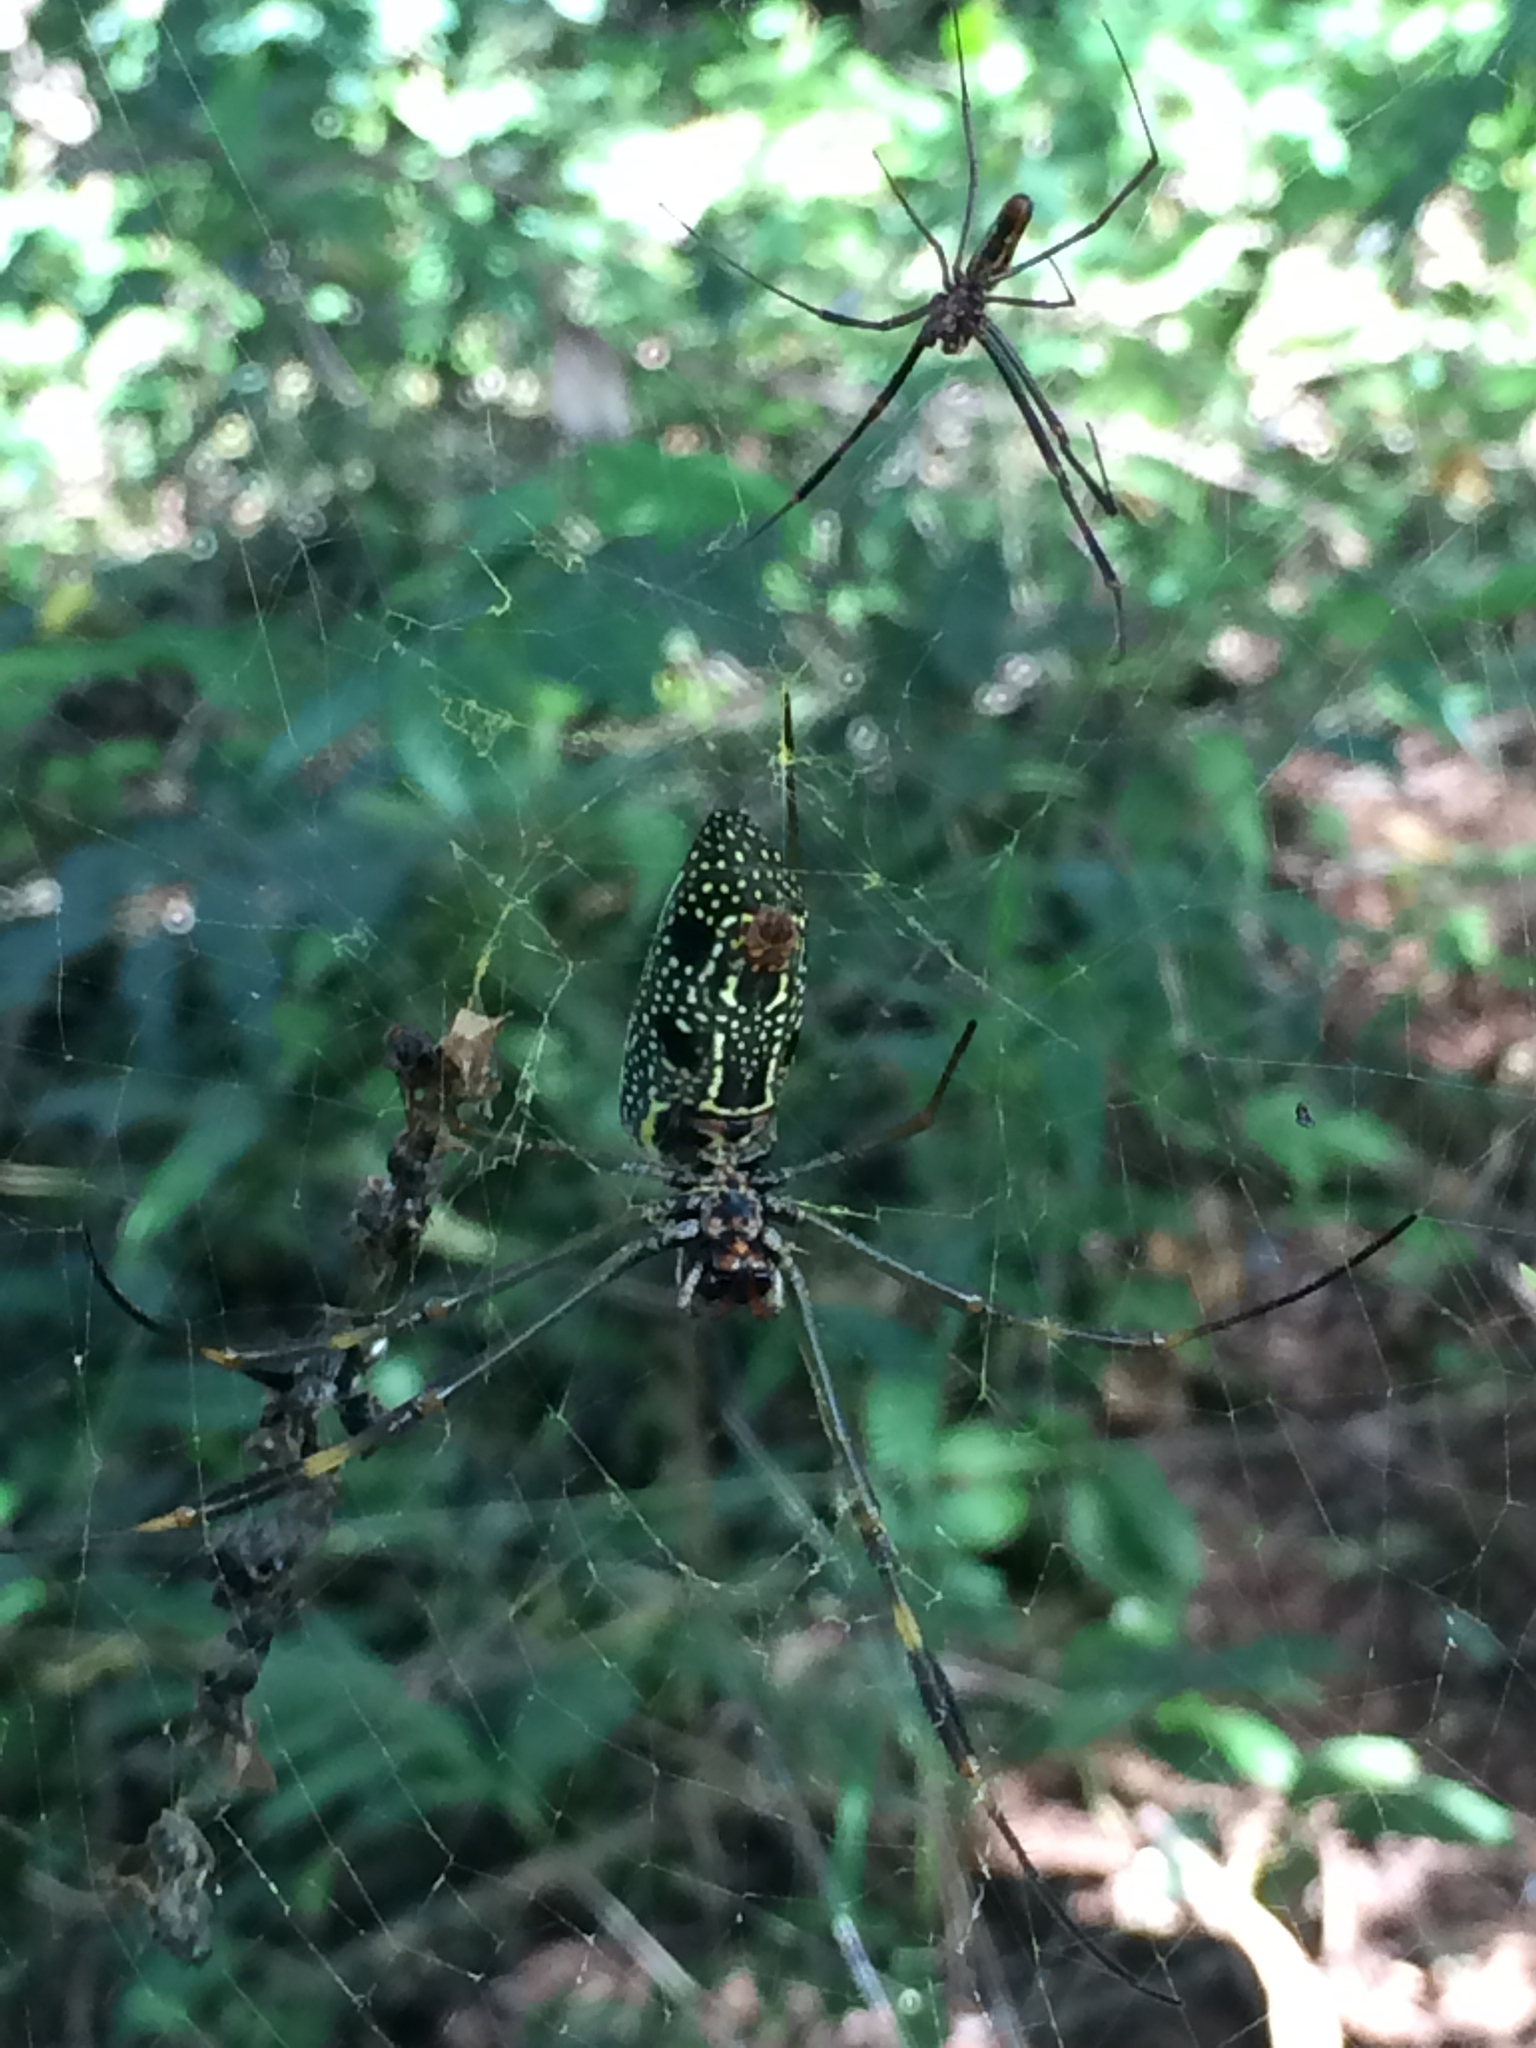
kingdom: Animalia
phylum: Arthropoda
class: Arachnida
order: Araneae
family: Araneidae
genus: Trichonephila
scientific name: Trichonephila clavipes
